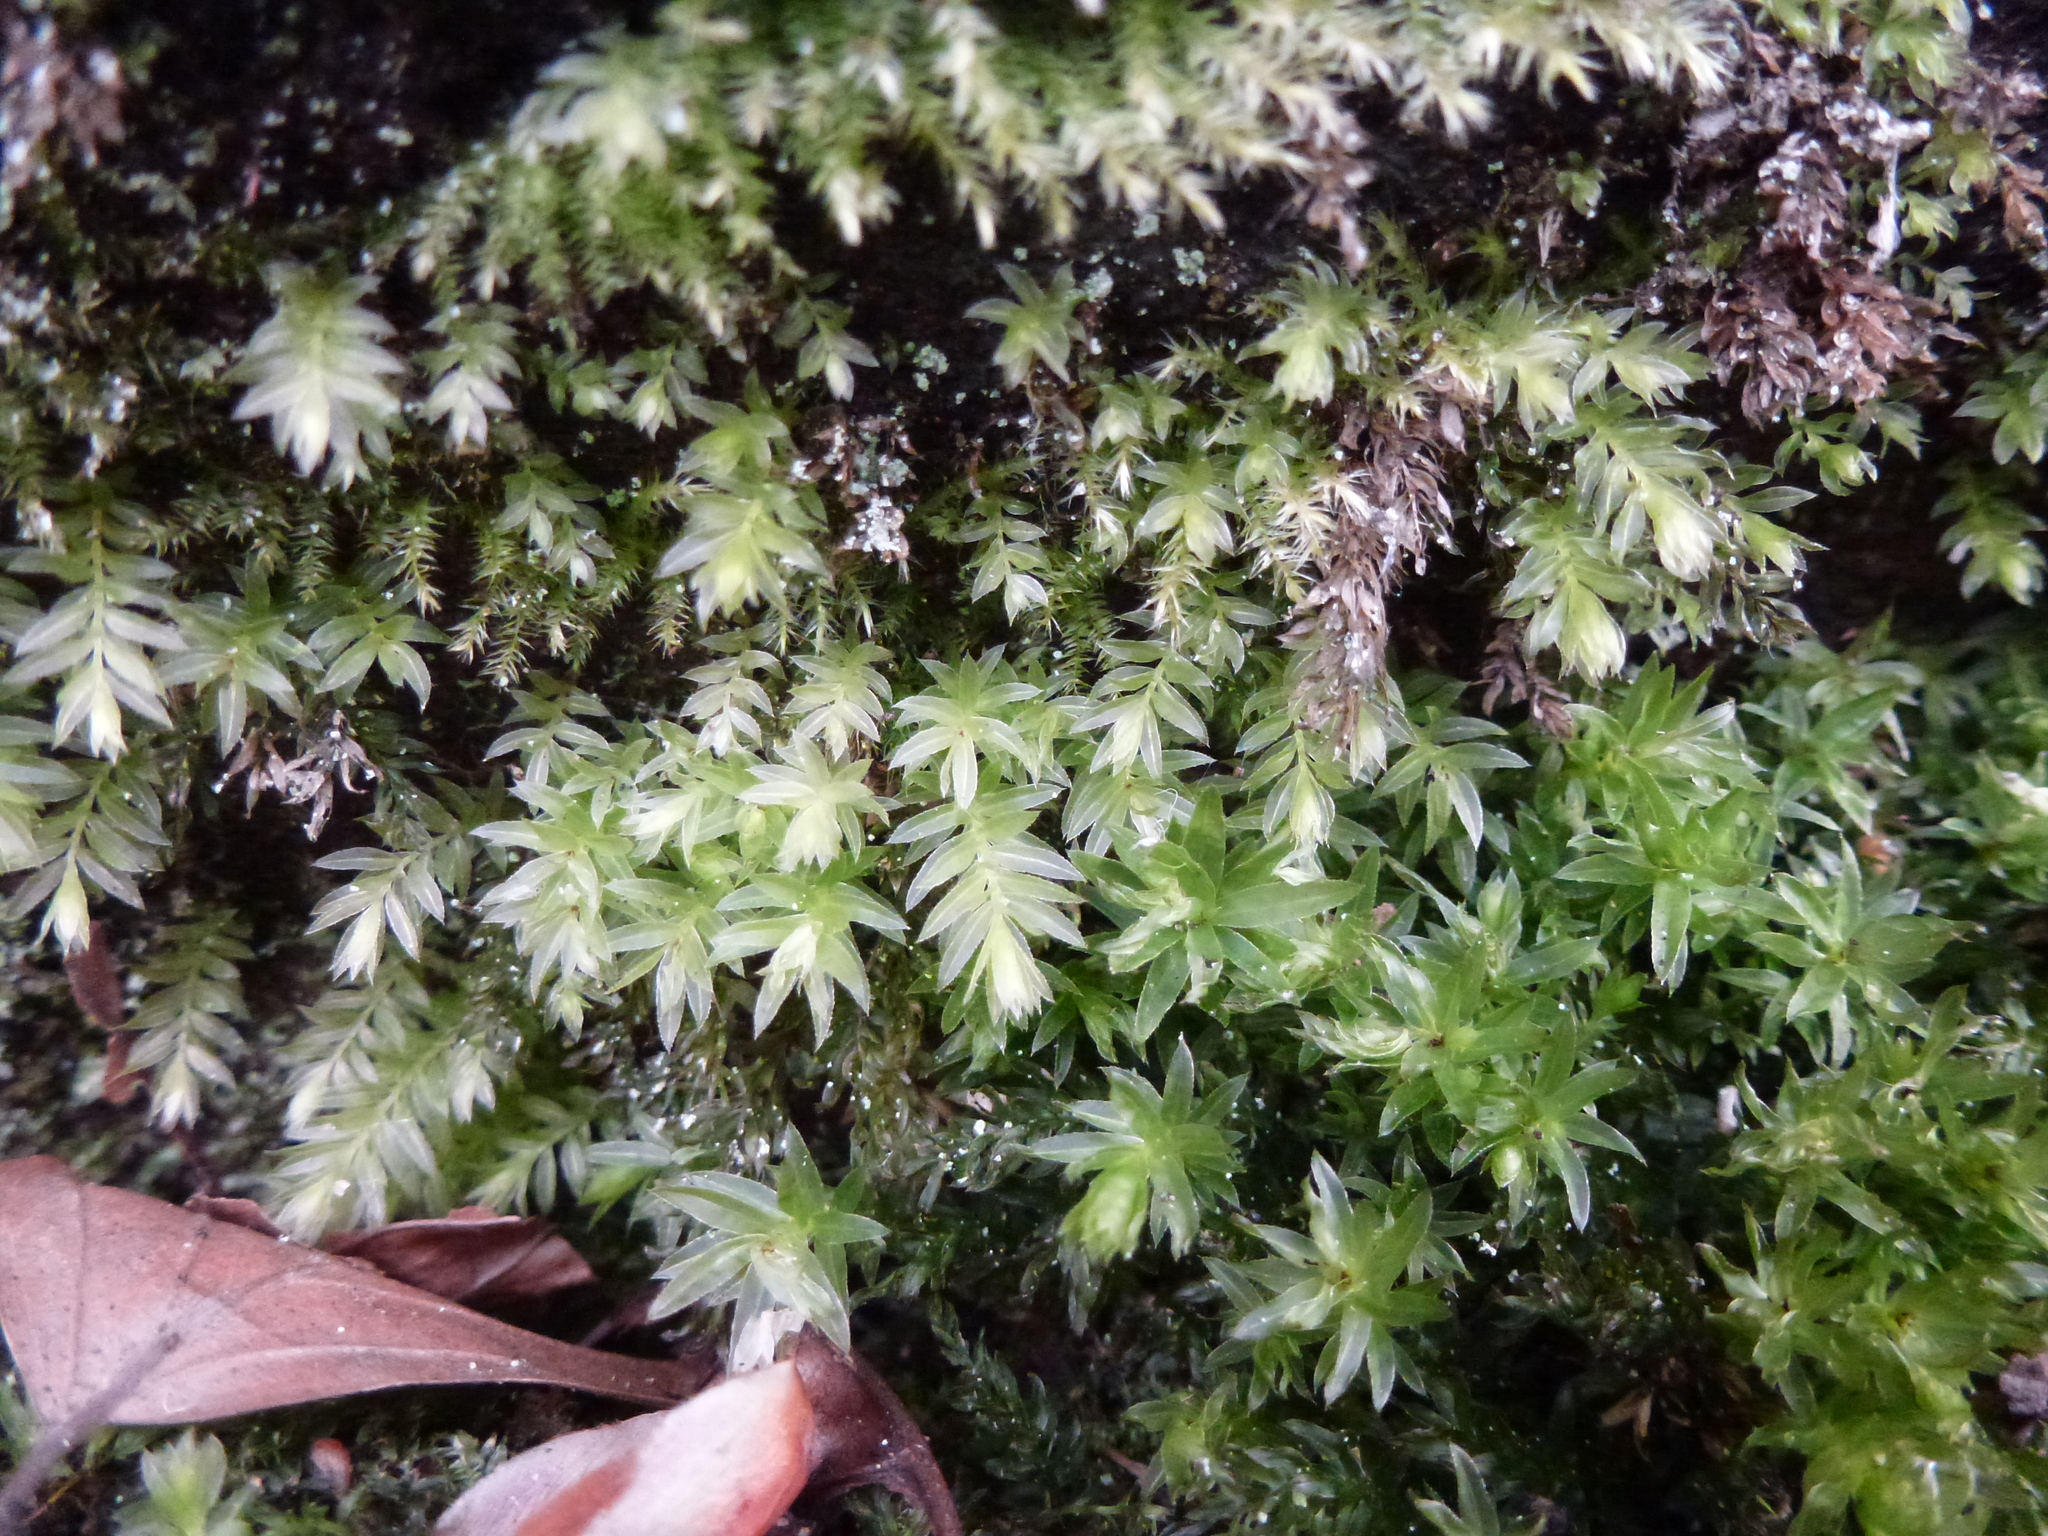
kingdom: Plantae
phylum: Bryophyta
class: Bryopsida
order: Bryales
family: Mniaceae
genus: Mnium
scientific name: Mnium hornum
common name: Swan's-neck leafy moss
